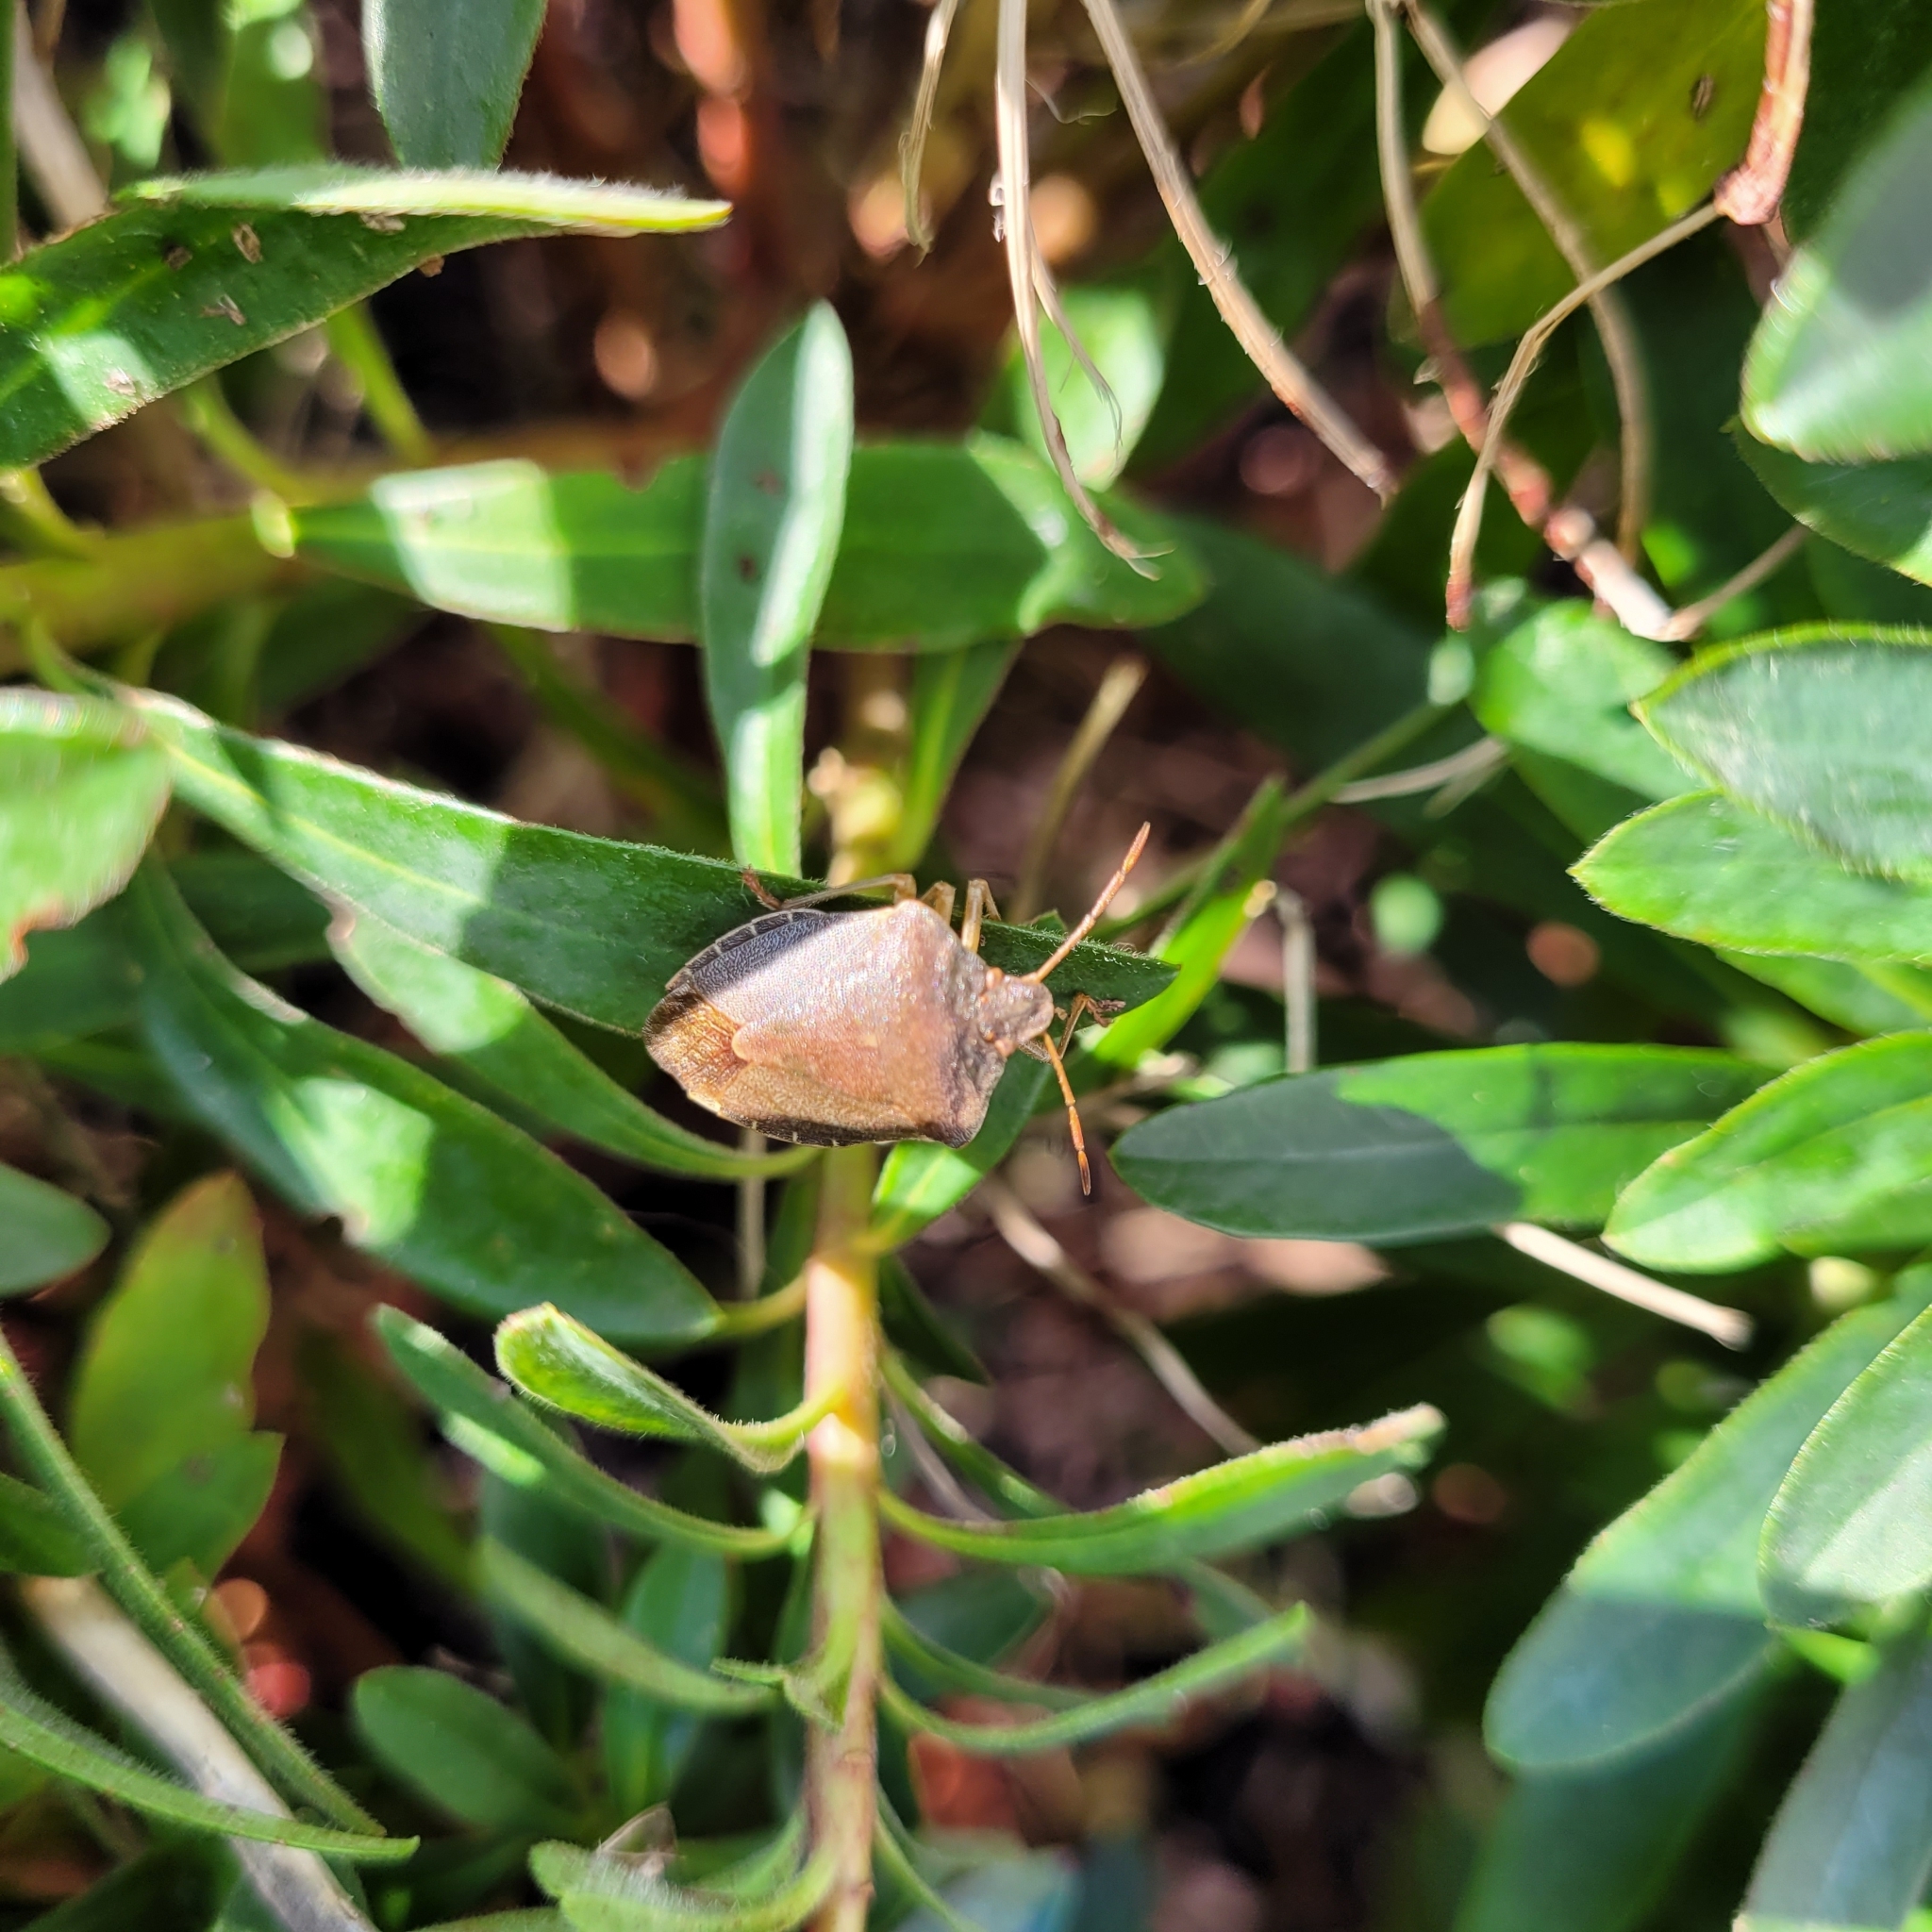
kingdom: Animalia
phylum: Arthropoda
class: Insecta
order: Hemiptera
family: Pentatomidae
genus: Palomena
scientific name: Palomena prasina
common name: Green shieldbug
